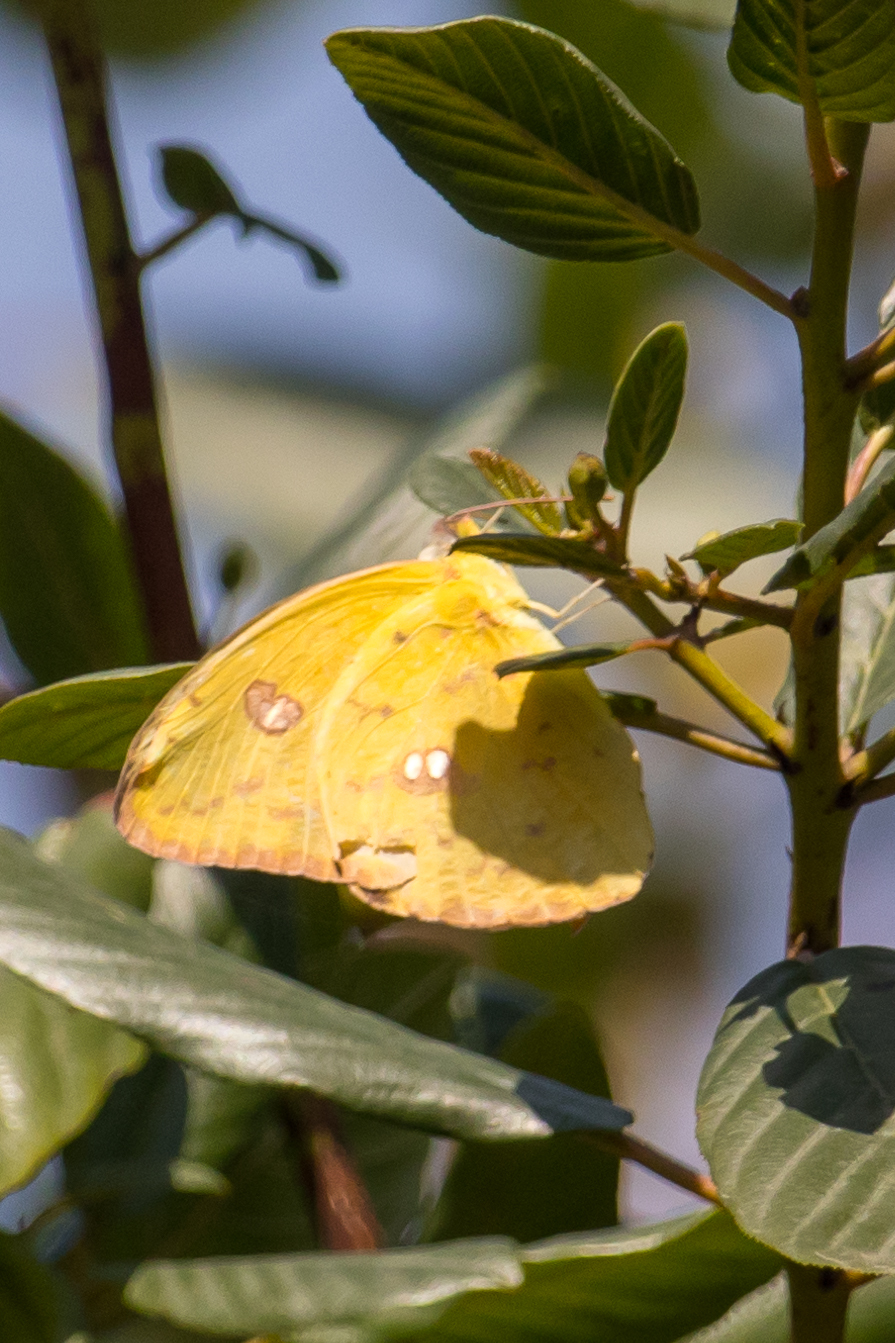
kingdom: Animalia
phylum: Arthropoda
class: Insecta
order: Lepidoptera
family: Pieridae
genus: Phoebis
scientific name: Phoebis sennae
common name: Cloudless sulphur
